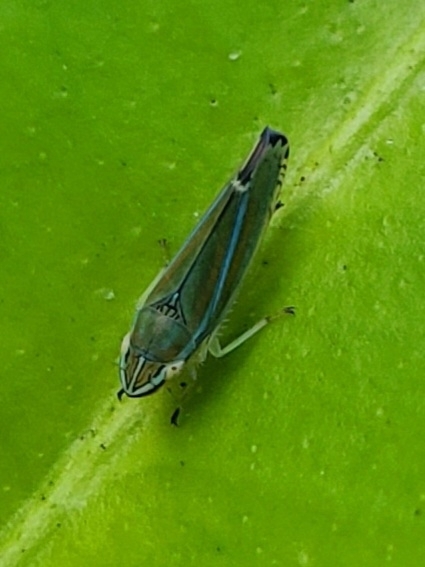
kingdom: Animalia
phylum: Arthropoda
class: Insecta
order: Hemiptera
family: Cicadellidae
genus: Graphocephala
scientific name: Graphocephala versuta
